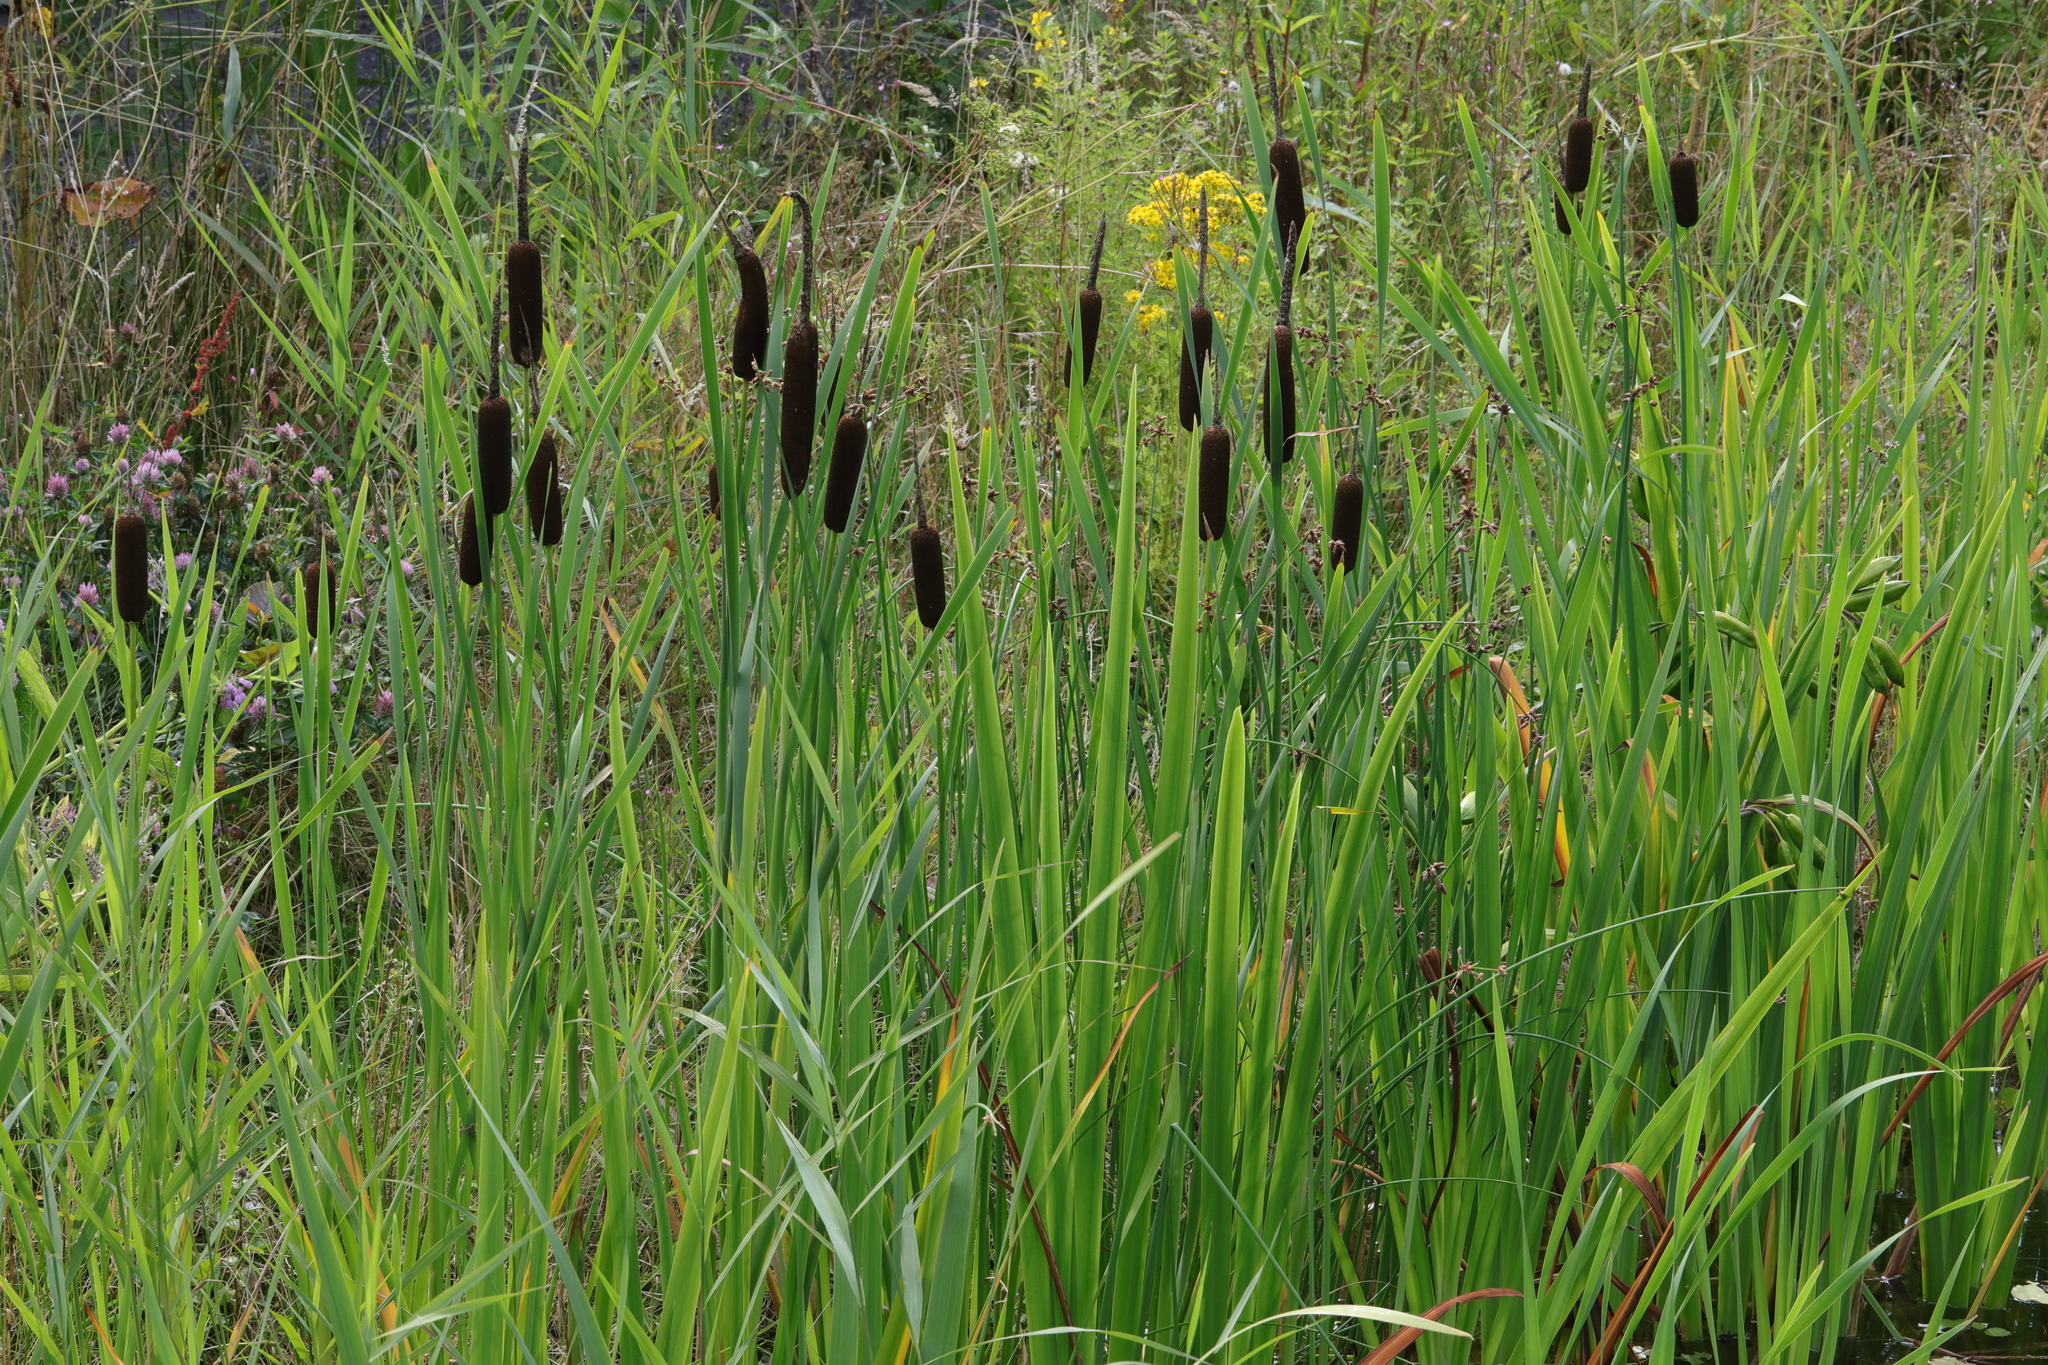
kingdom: Plantae
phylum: Tracheophyta
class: Liliopsida
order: Poales
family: Typhaceae
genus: Typha
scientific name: Typha latifolia
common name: Broadleaf cattail
